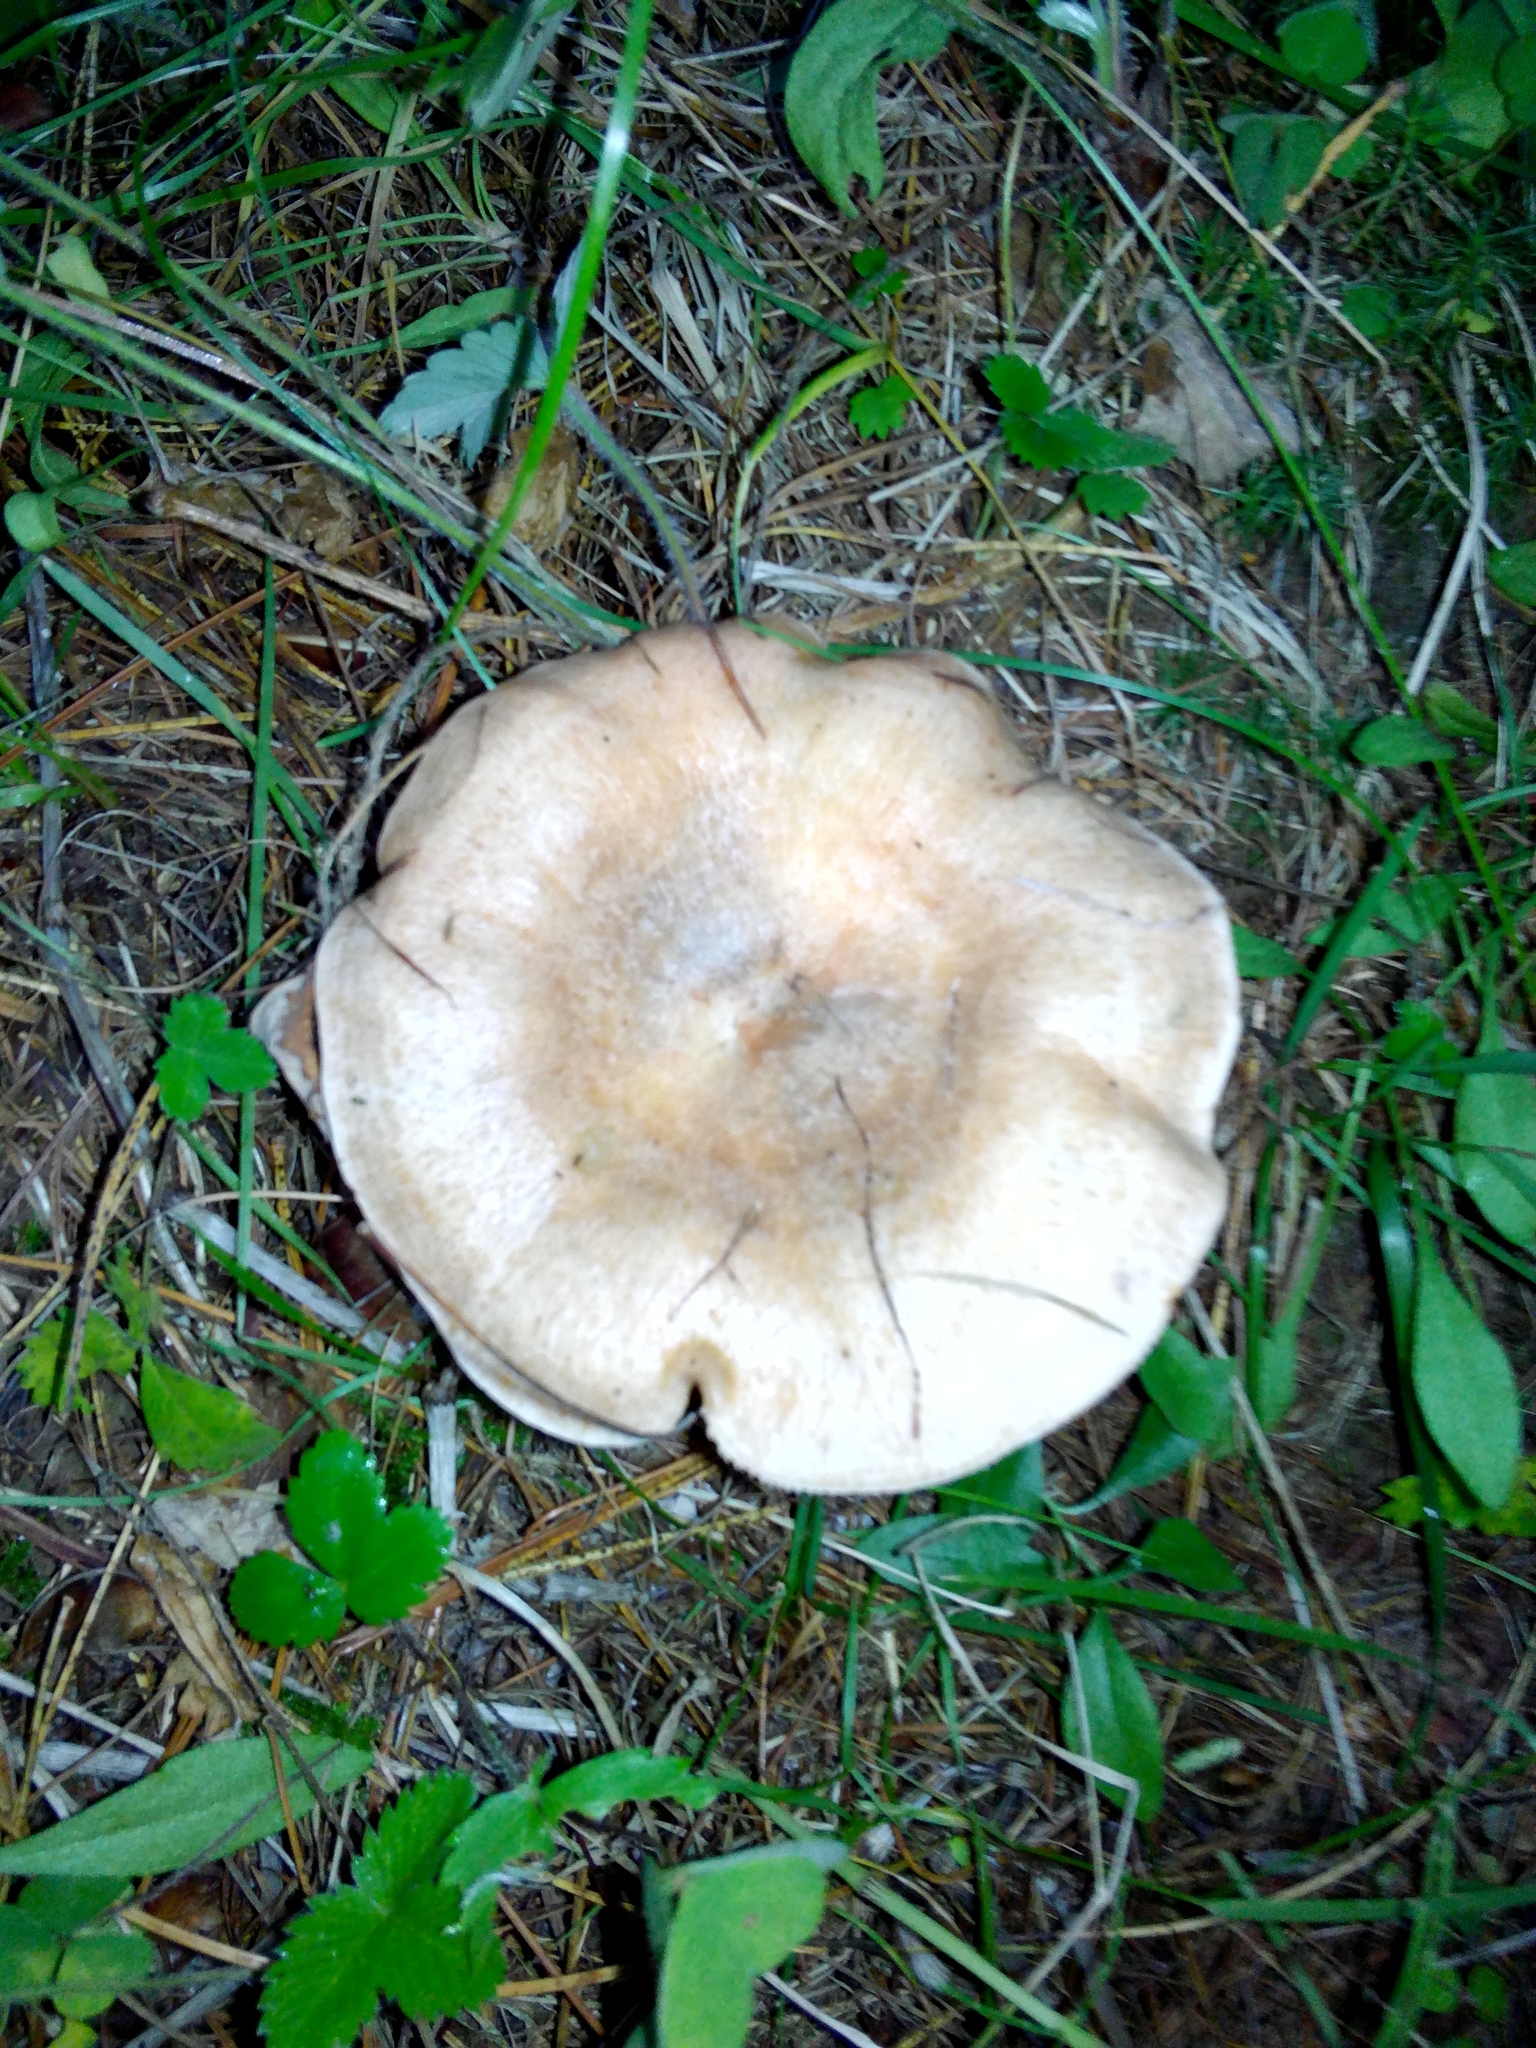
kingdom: Fungi
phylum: Basidiomycota
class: Agaricomycetes
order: Russulales
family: Russulaceae
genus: Lactarius
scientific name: Lactarius deterrimus
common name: False saffron milkcap
